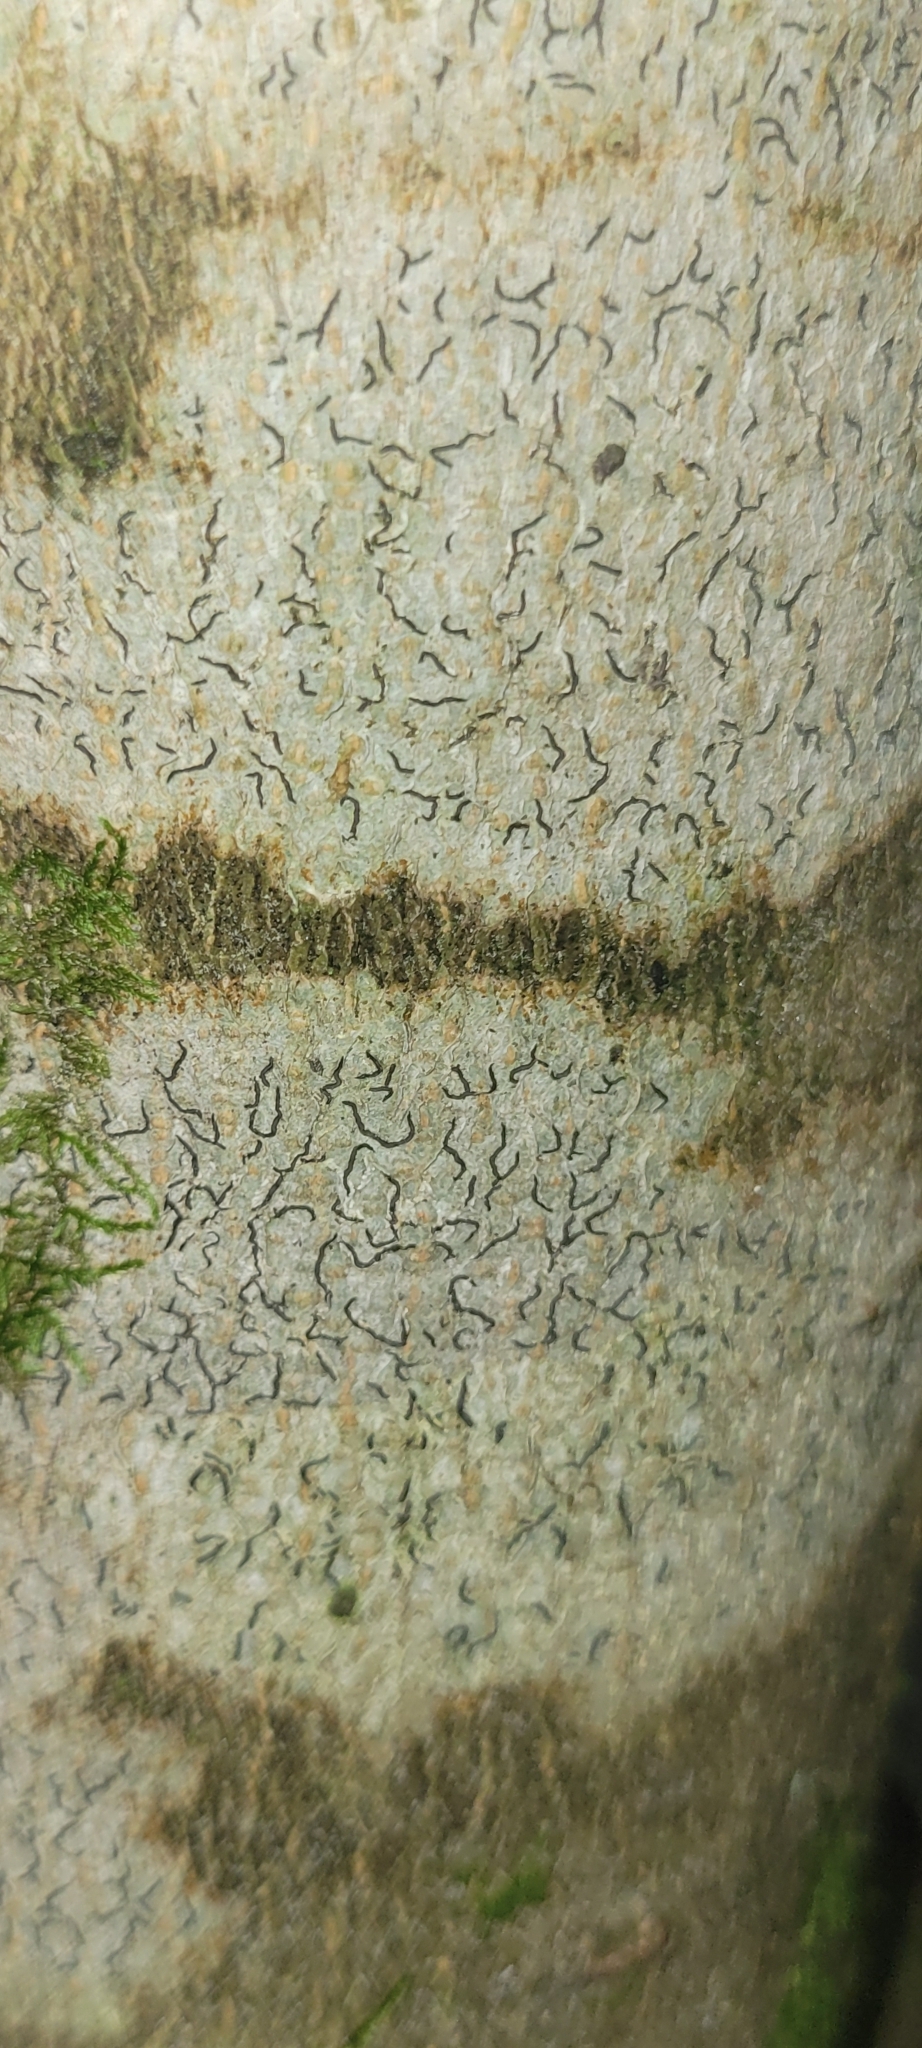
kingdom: Fungi
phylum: Ascomycota
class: Lecanoromycetes
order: Ostropales
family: Graphidaceae
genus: Graphis
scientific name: Graphis scripta
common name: Script lichen
